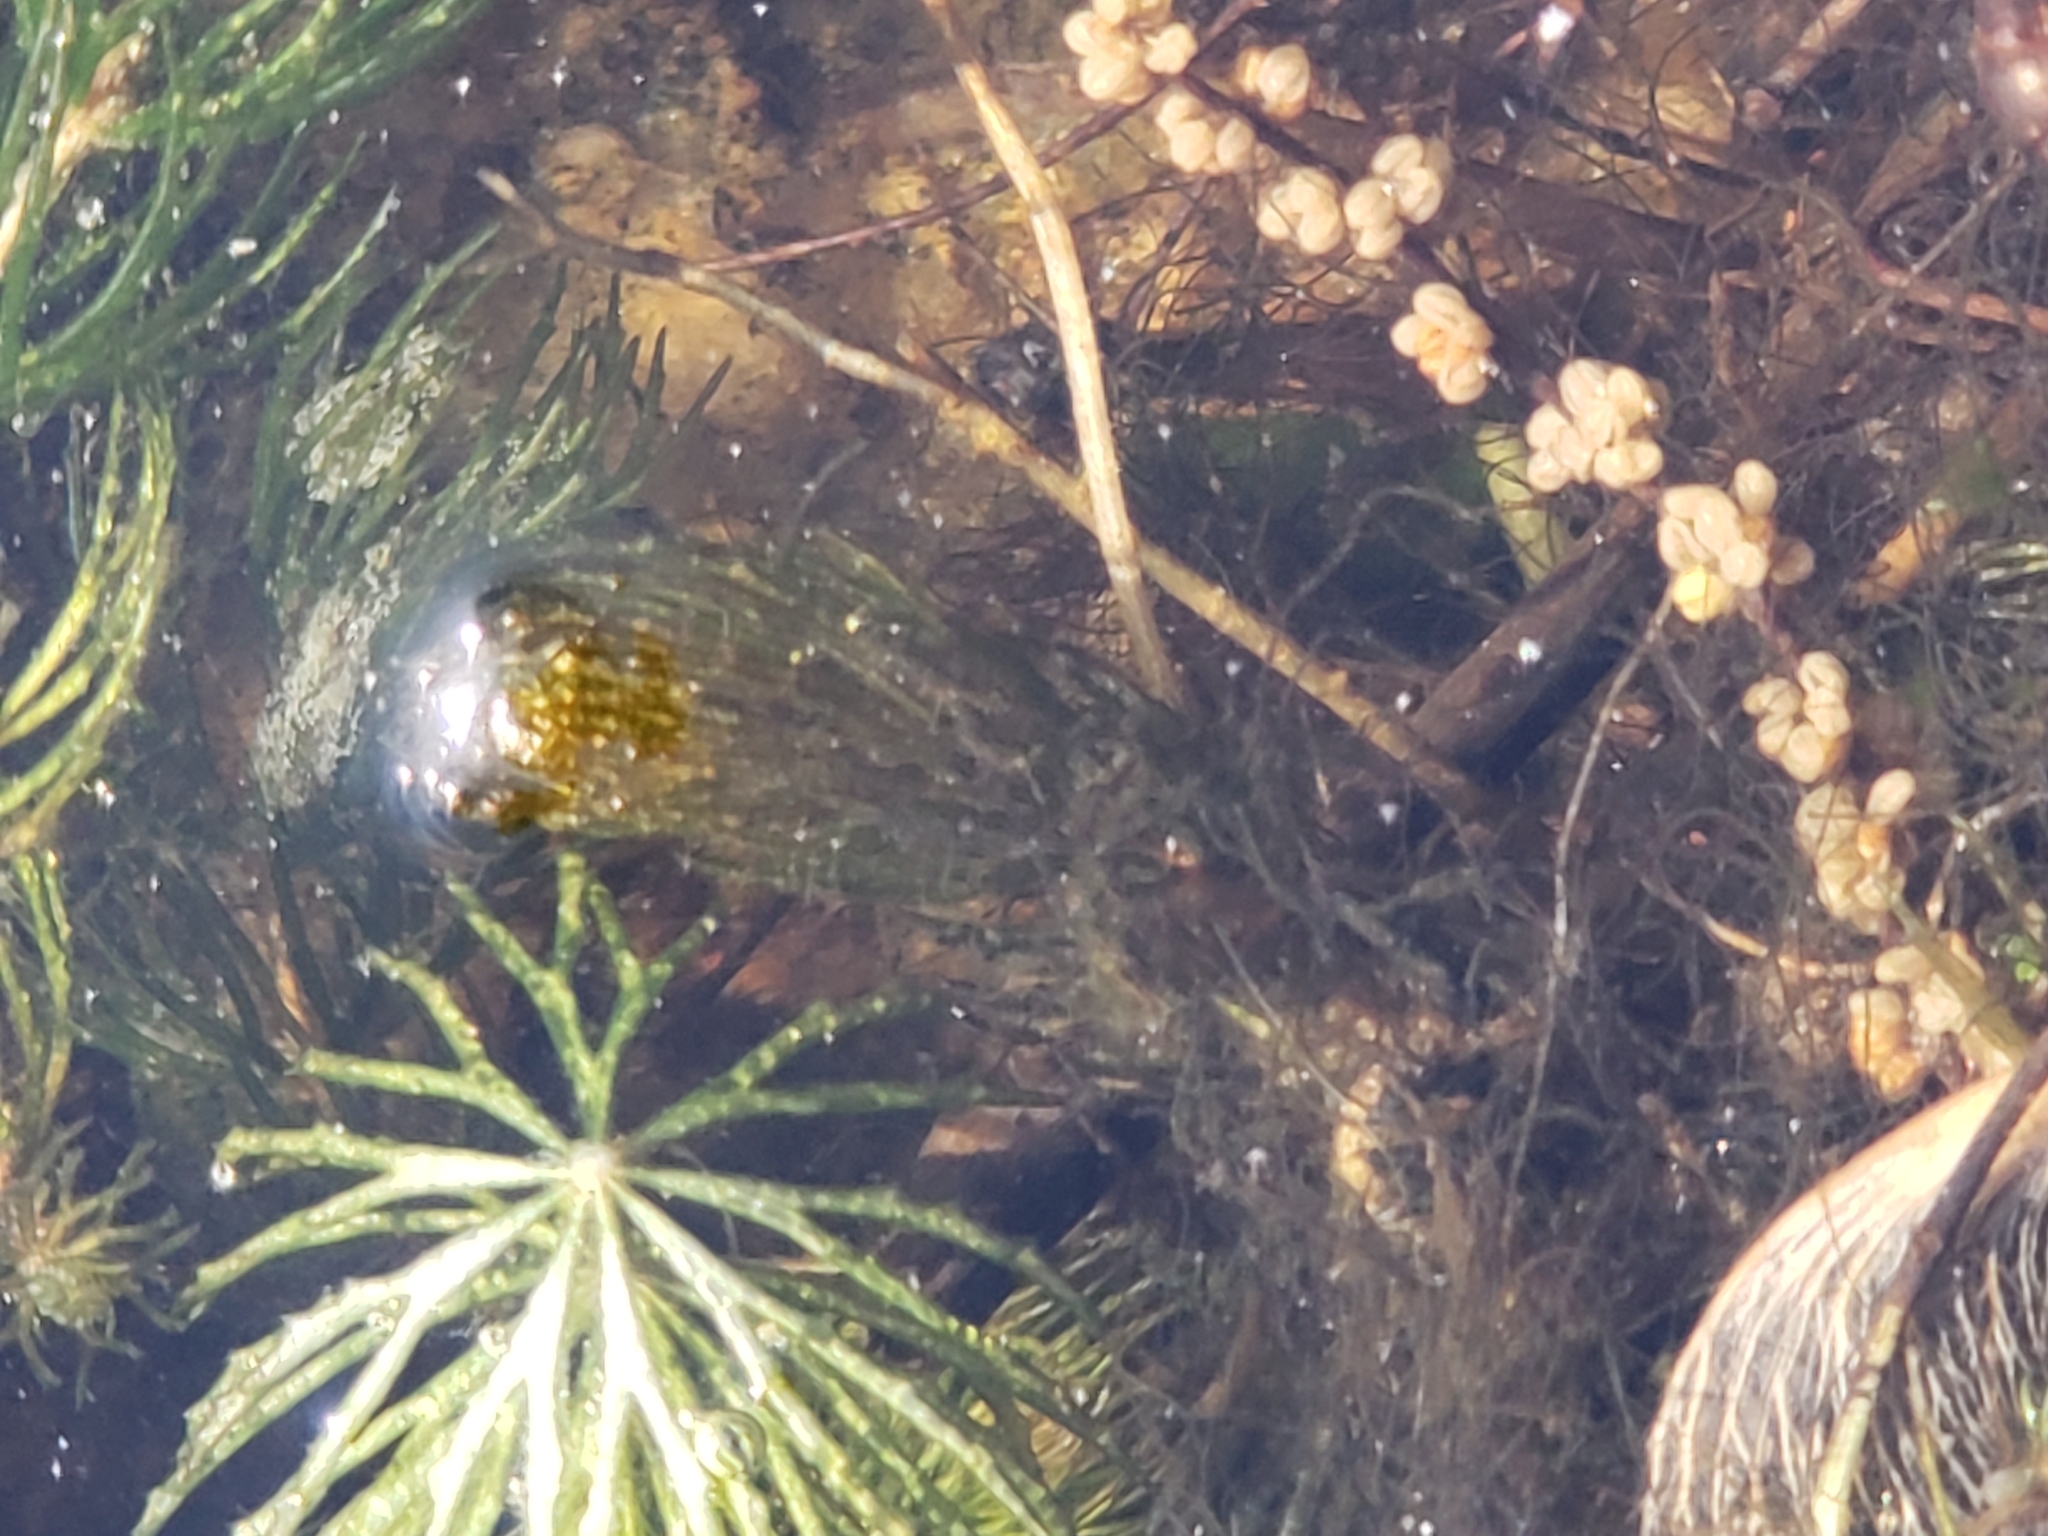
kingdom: Plantae
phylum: Tracheophyta
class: Magnoliopsida
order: Ceratophyllales
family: Ceratophyllaceae
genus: Ceratophyllum
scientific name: Ceratophyllum demersum
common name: Rigid hornwort
